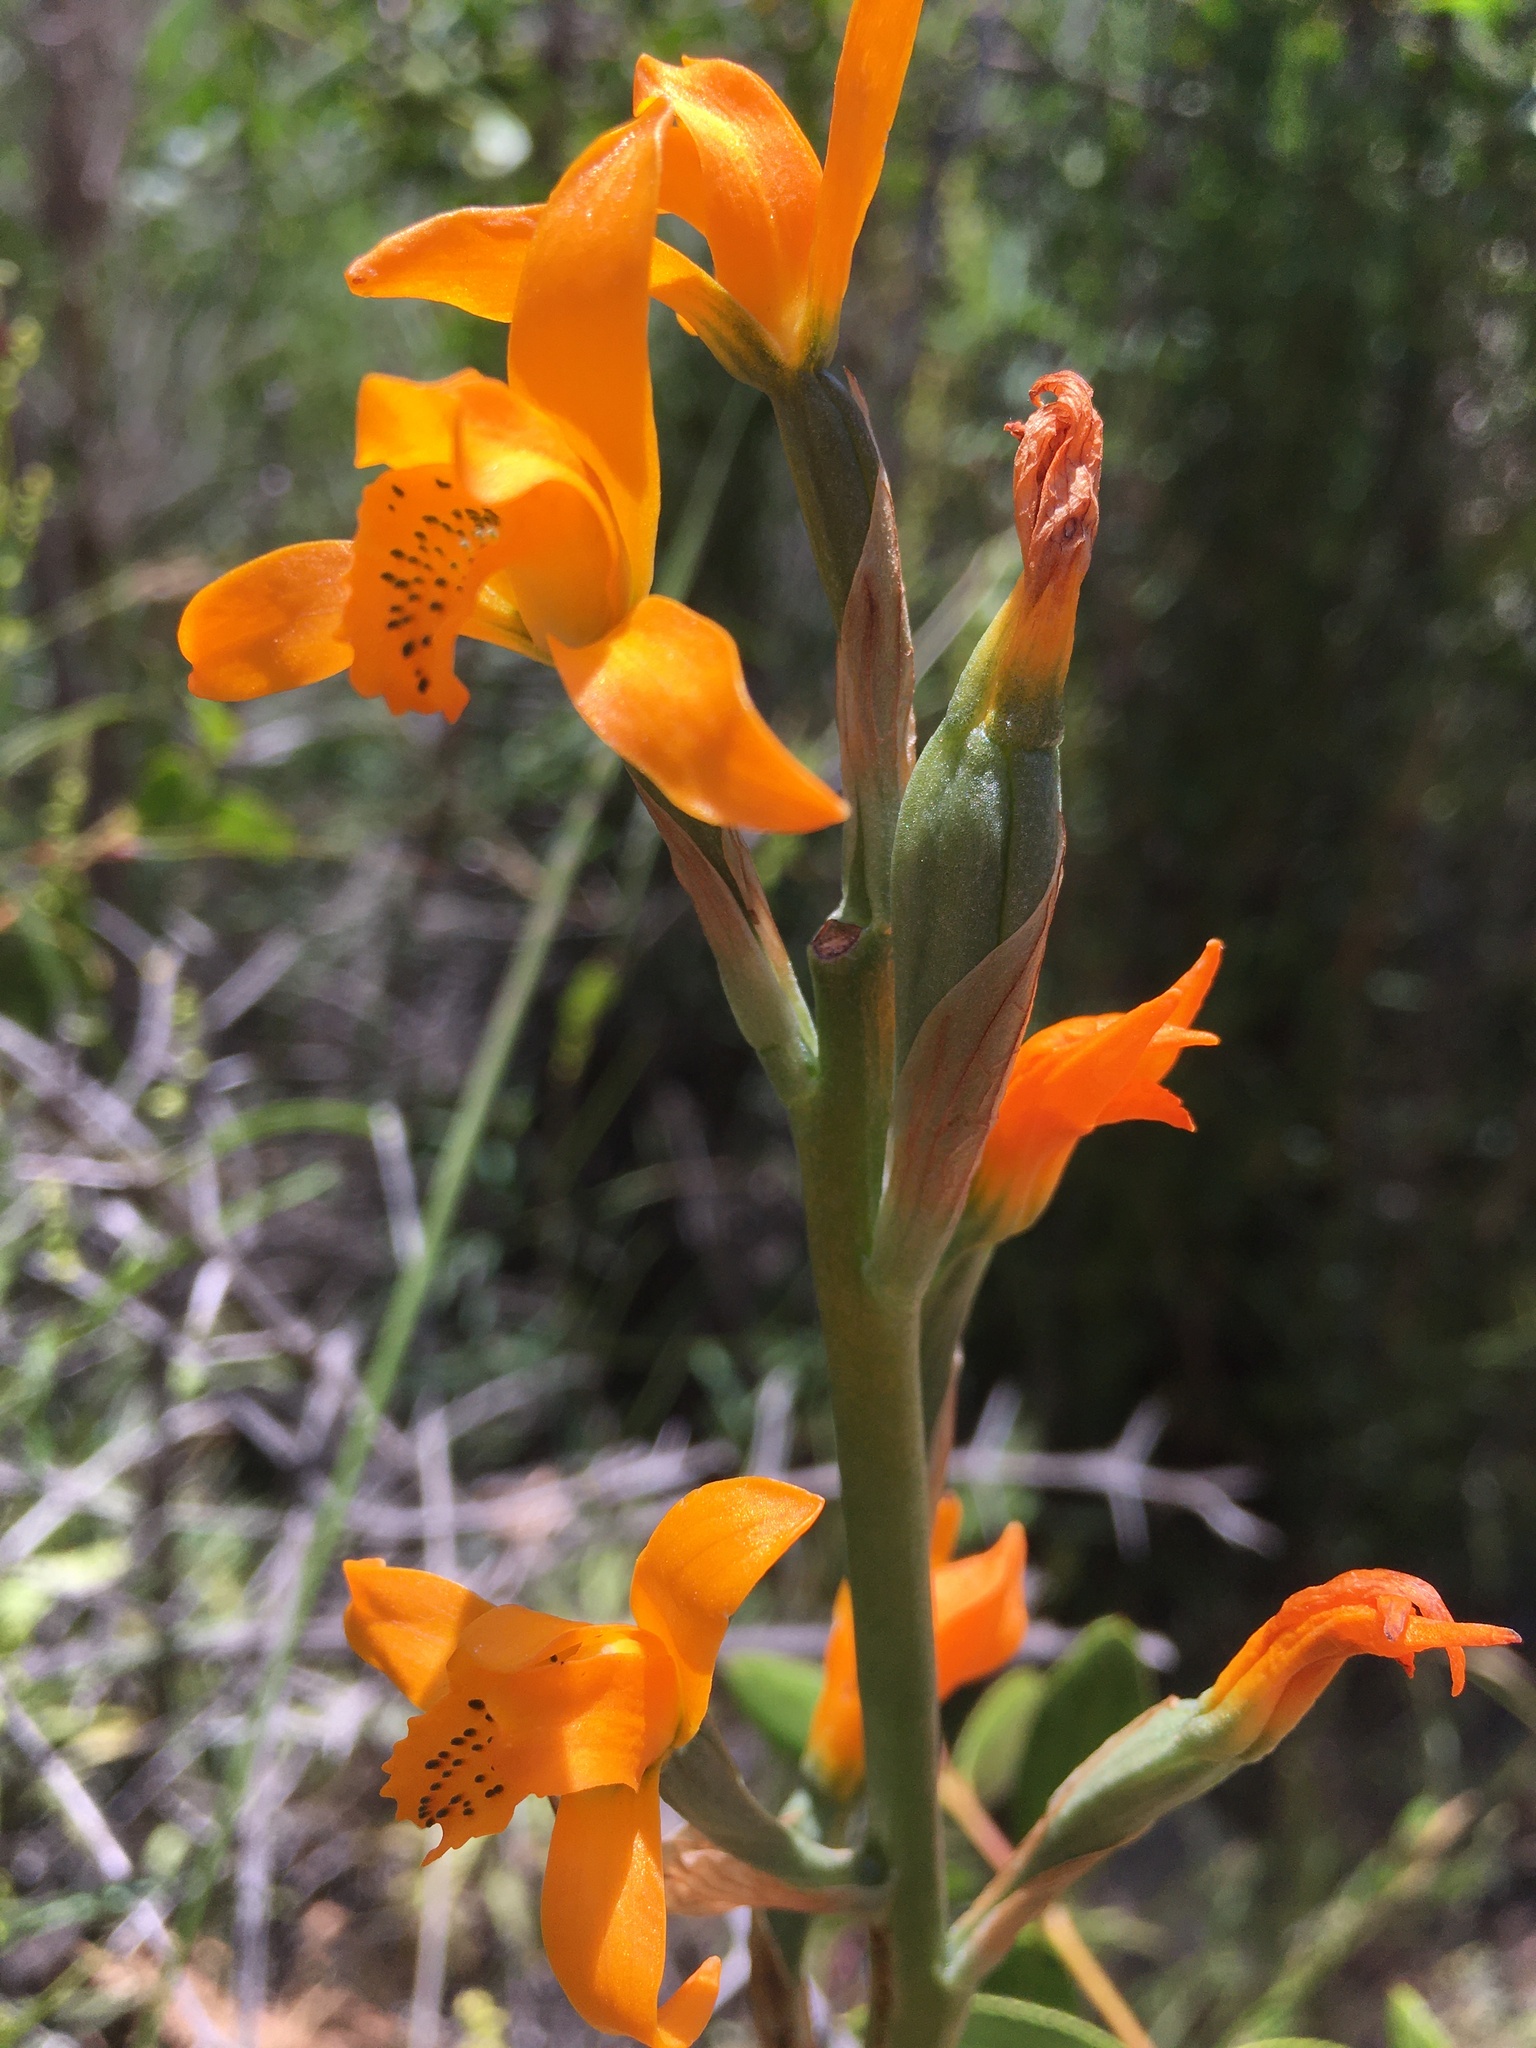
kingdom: Plantae
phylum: Tracheophyta
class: Liliopsida
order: Asparagales
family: Orchidaceae
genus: Chloraea
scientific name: Chloraea chrysantha
